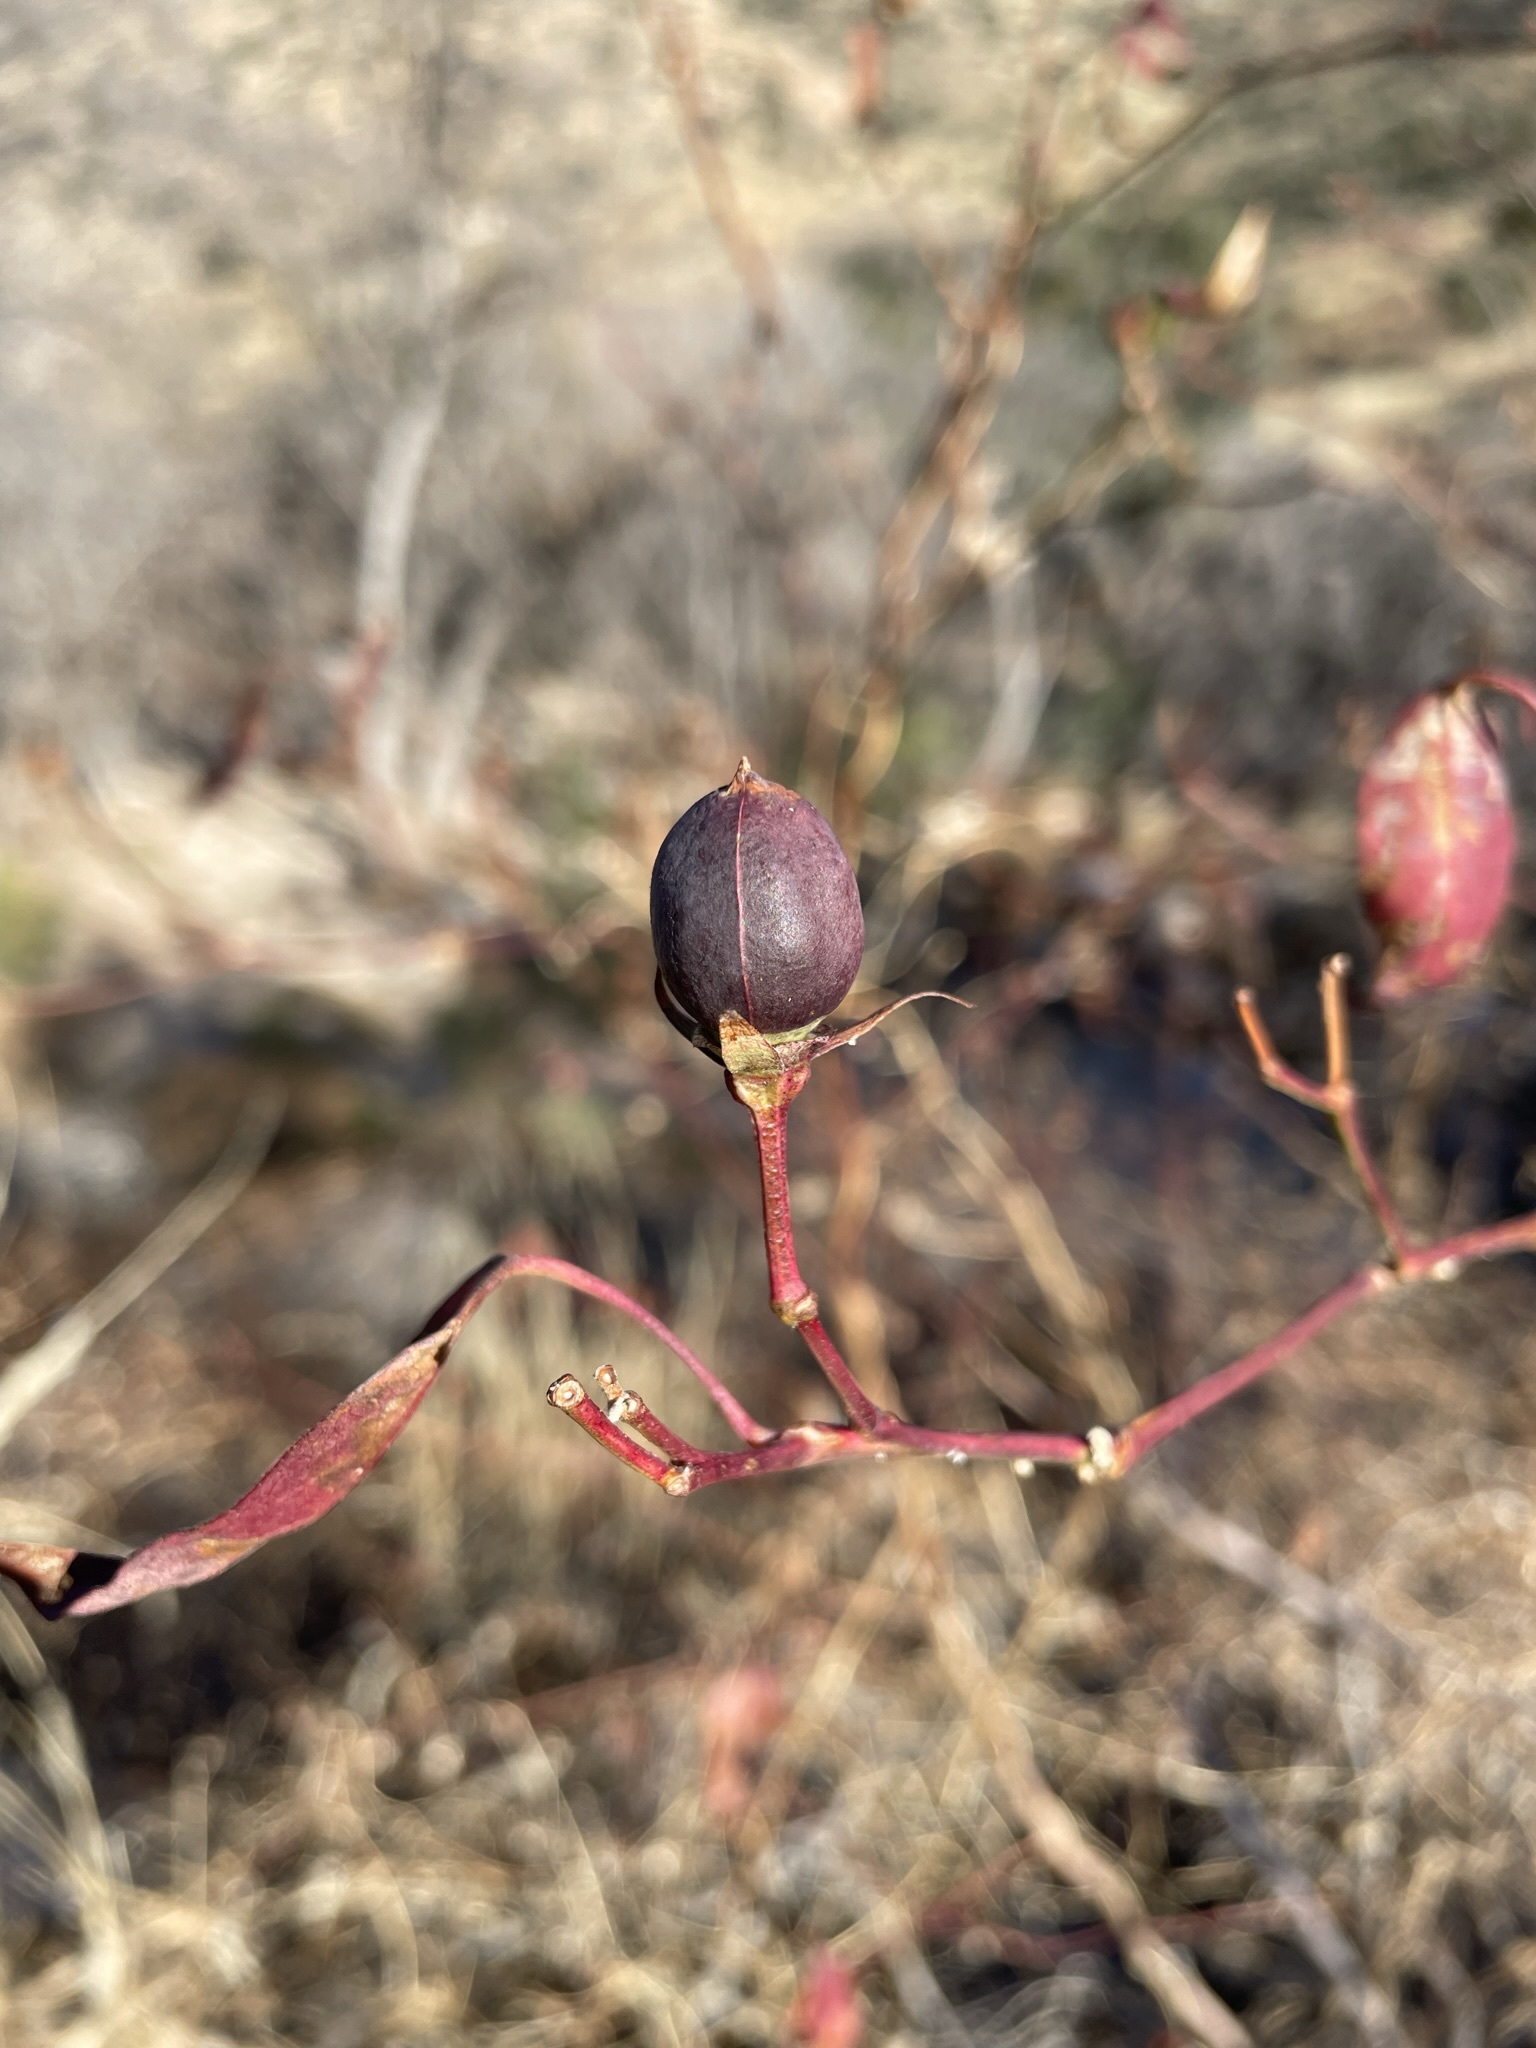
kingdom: Plantae
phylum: Tracheophyta
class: Magnoliopsida
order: Malvales
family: Malvaceae
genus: Gossypium
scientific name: Gossypium thurberi
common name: Desert cotton
